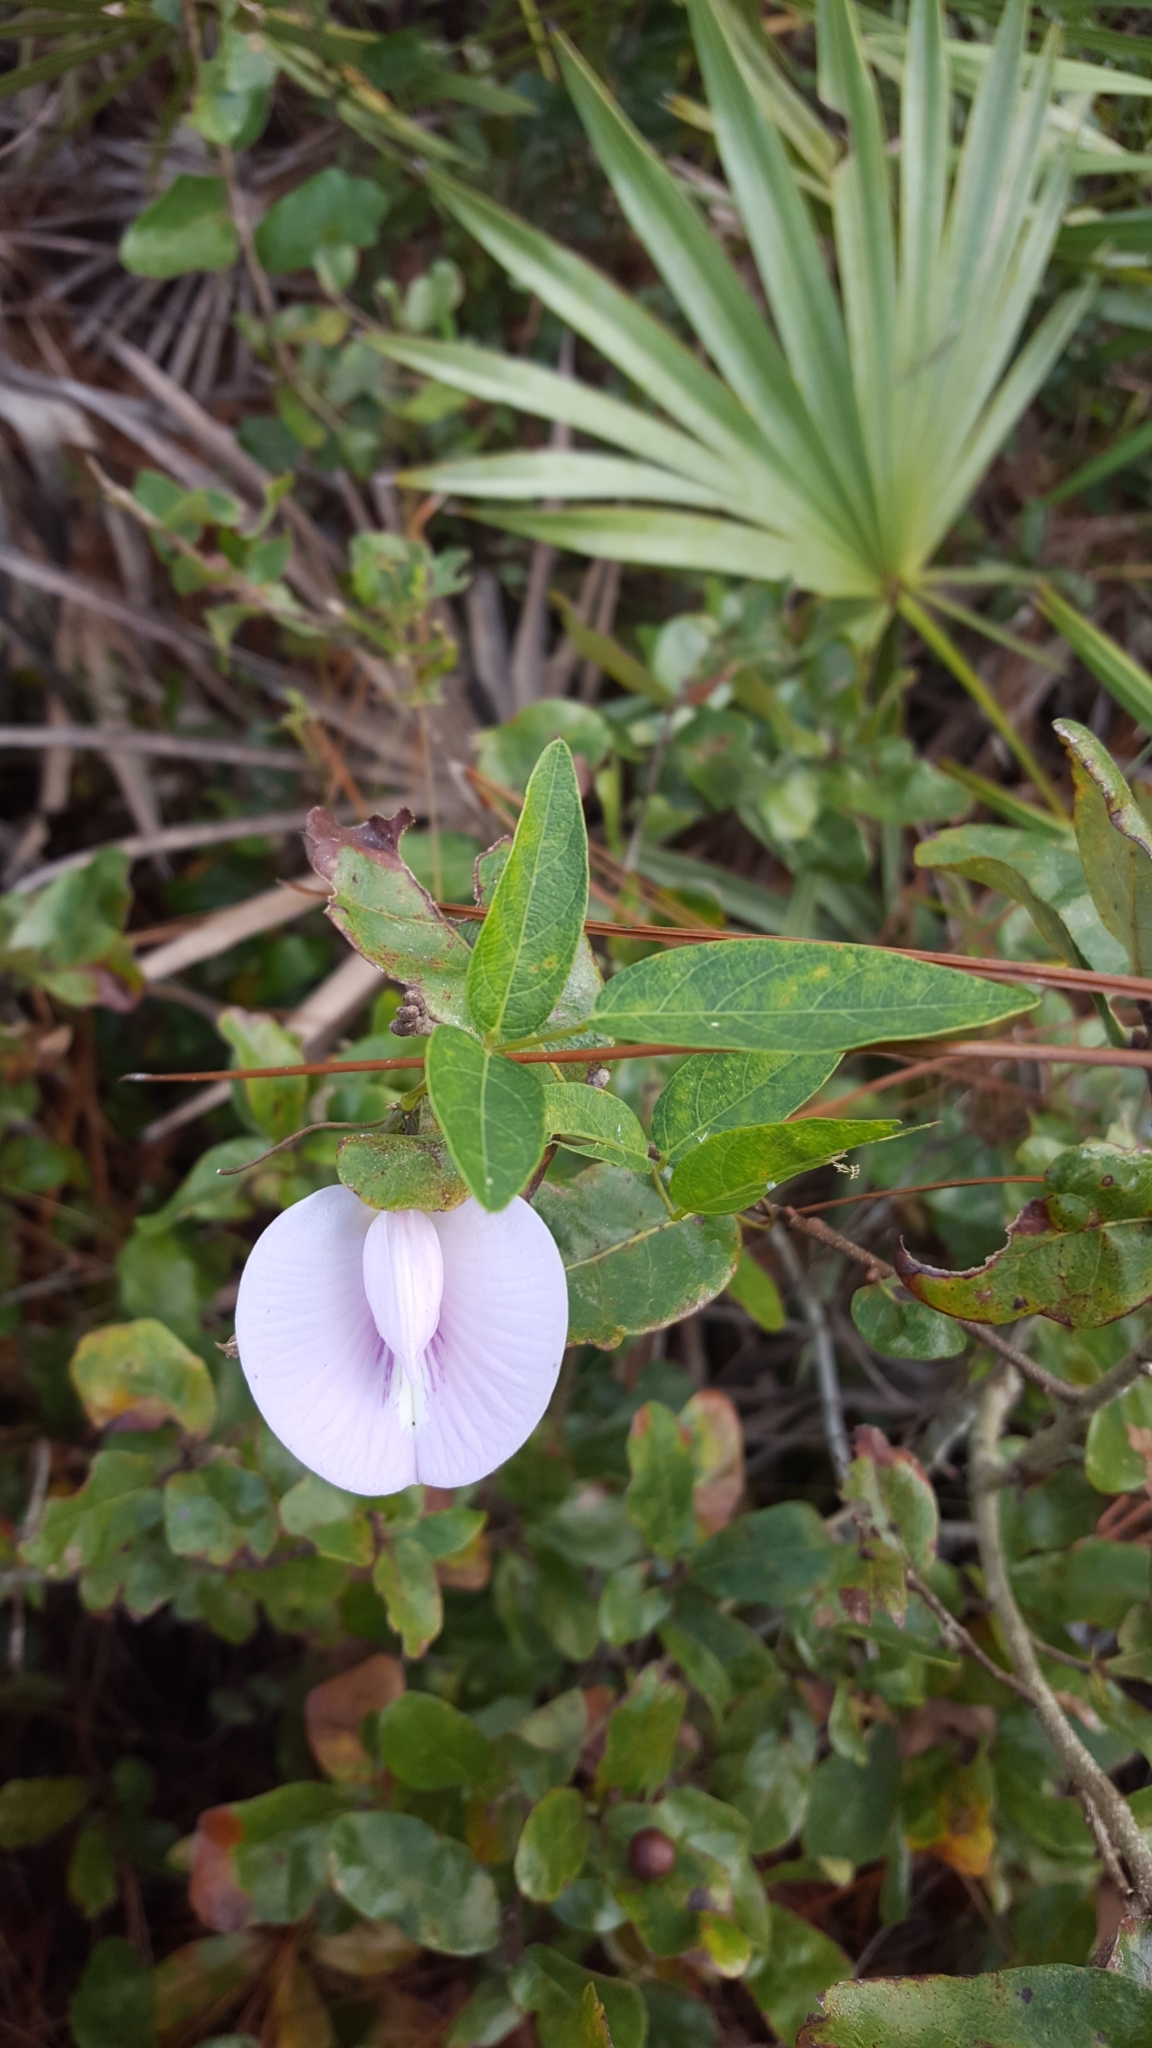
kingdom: Plantae
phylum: Tracheophyta
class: Magnoliopsida
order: Fabales
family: Fabaceae
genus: Centrosema
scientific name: Centrosema virginianum
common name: Butterfly-pea
